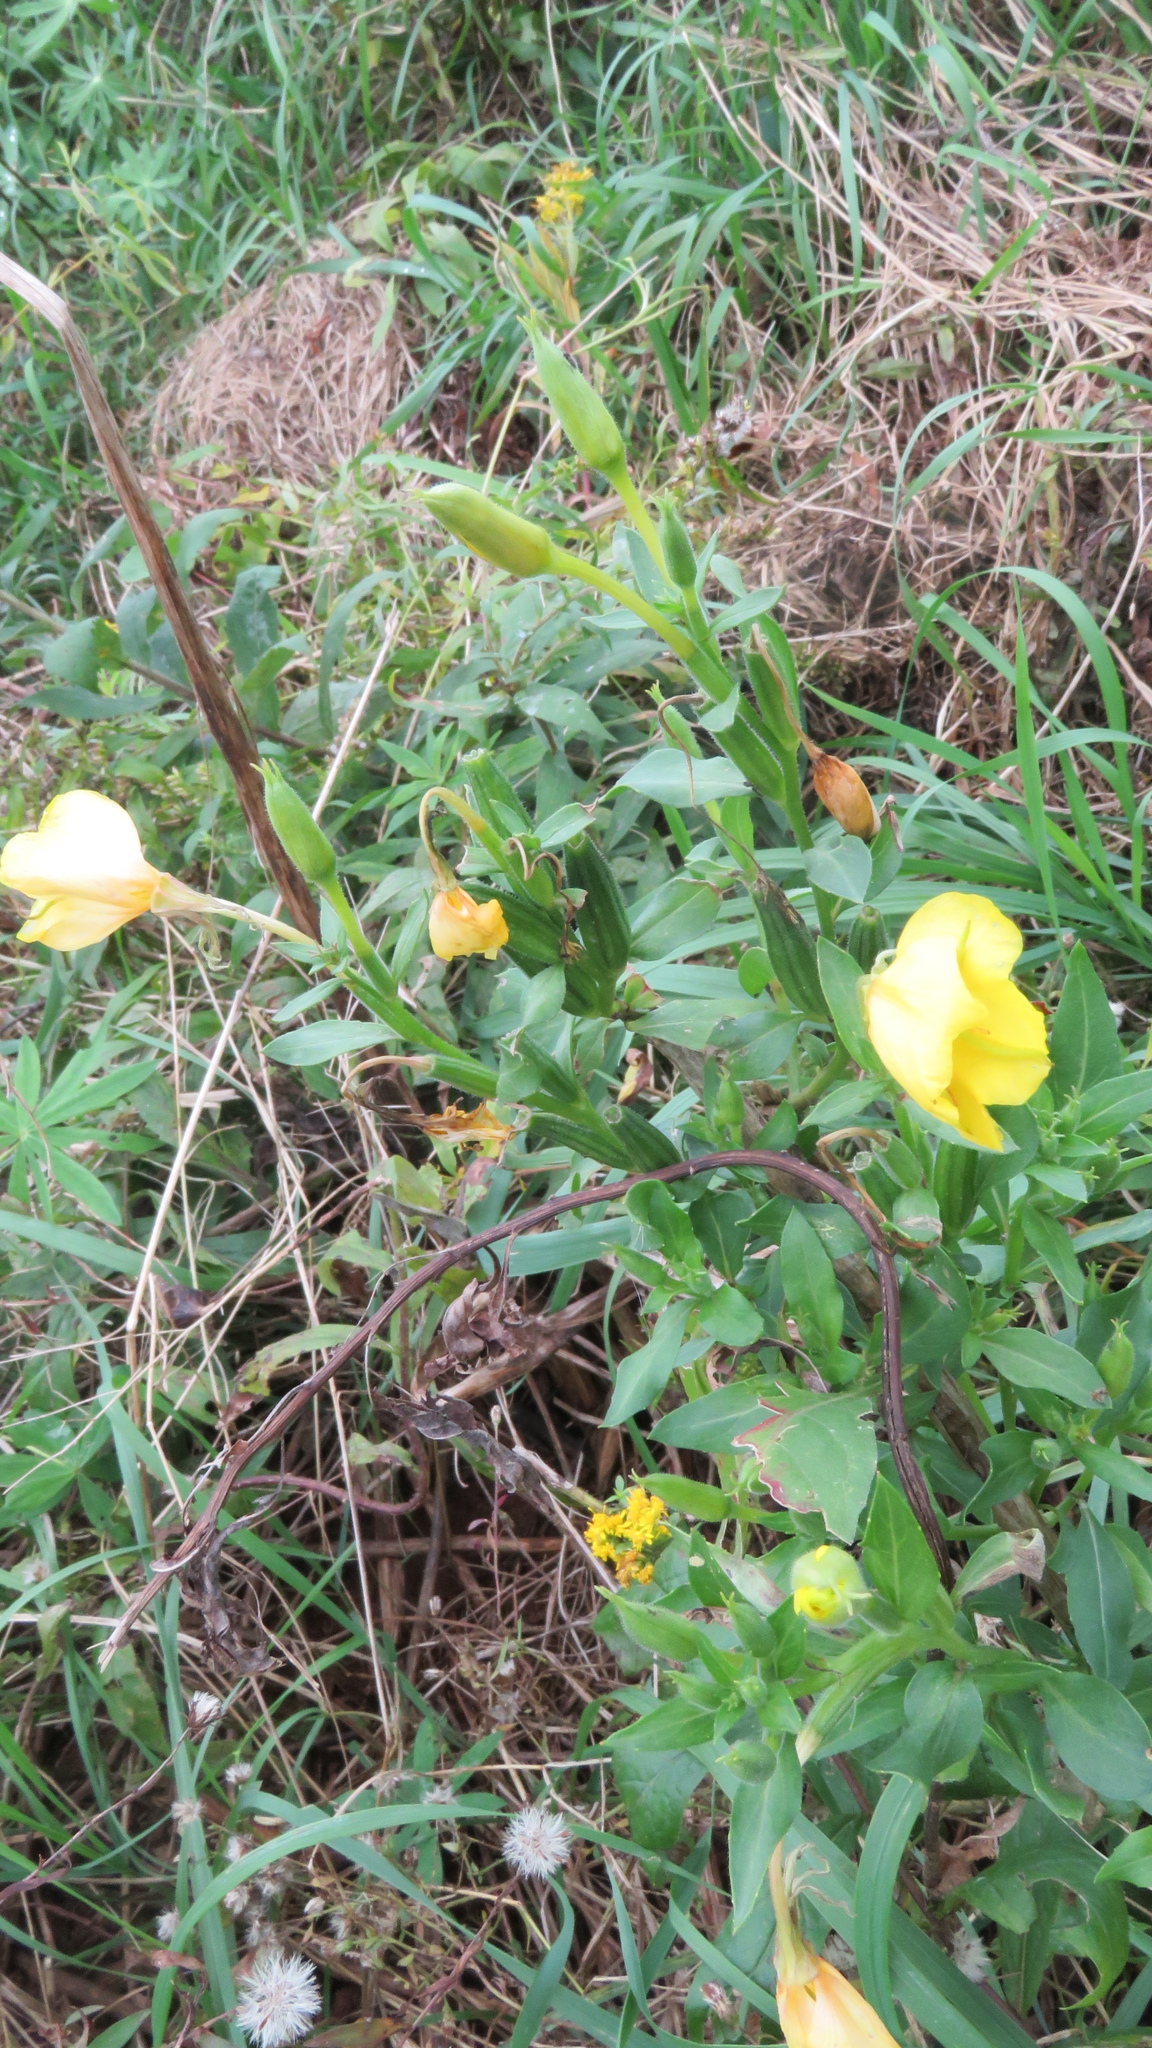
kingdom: Plantae
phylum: Tracheophyta
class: Magnoliopsida
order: Myrtales
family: Onagraceae
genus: Oenothera
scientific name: Oenothera biennis
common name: Common evening-primrose
